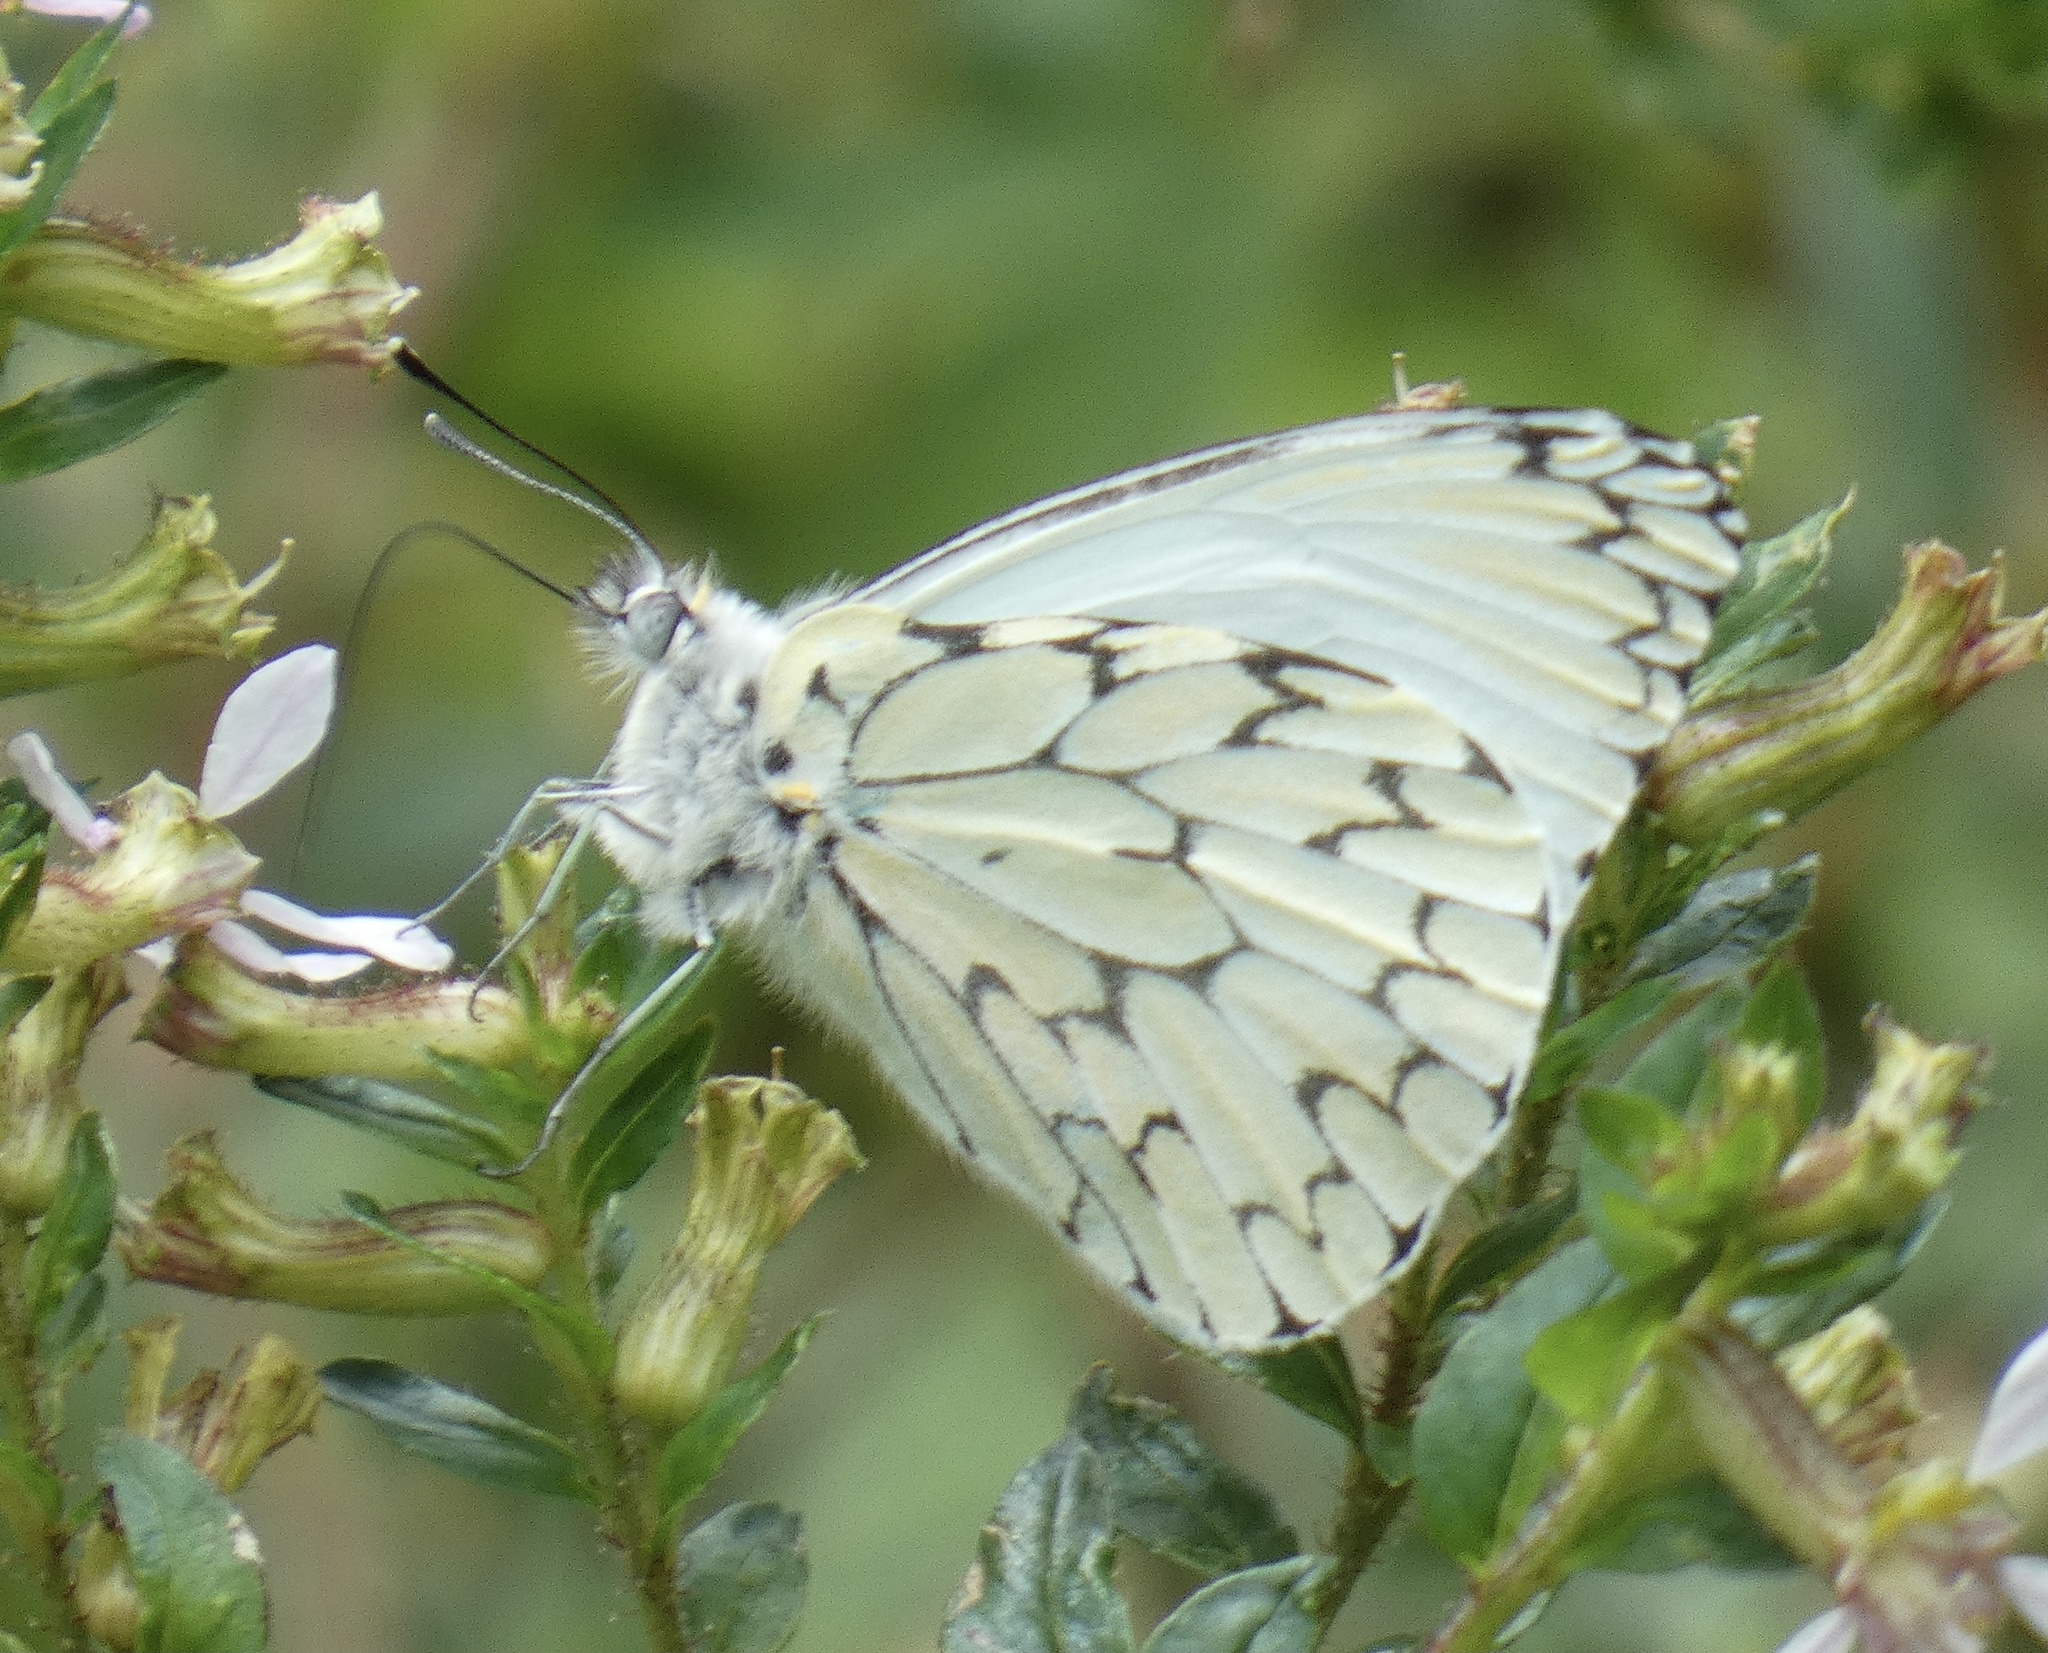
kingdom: Animalia
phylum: Arthropoda
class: Insecta
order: Lepidoptera
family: Pieridae
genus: Hesperocharis
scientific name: Hesperocharis erota
